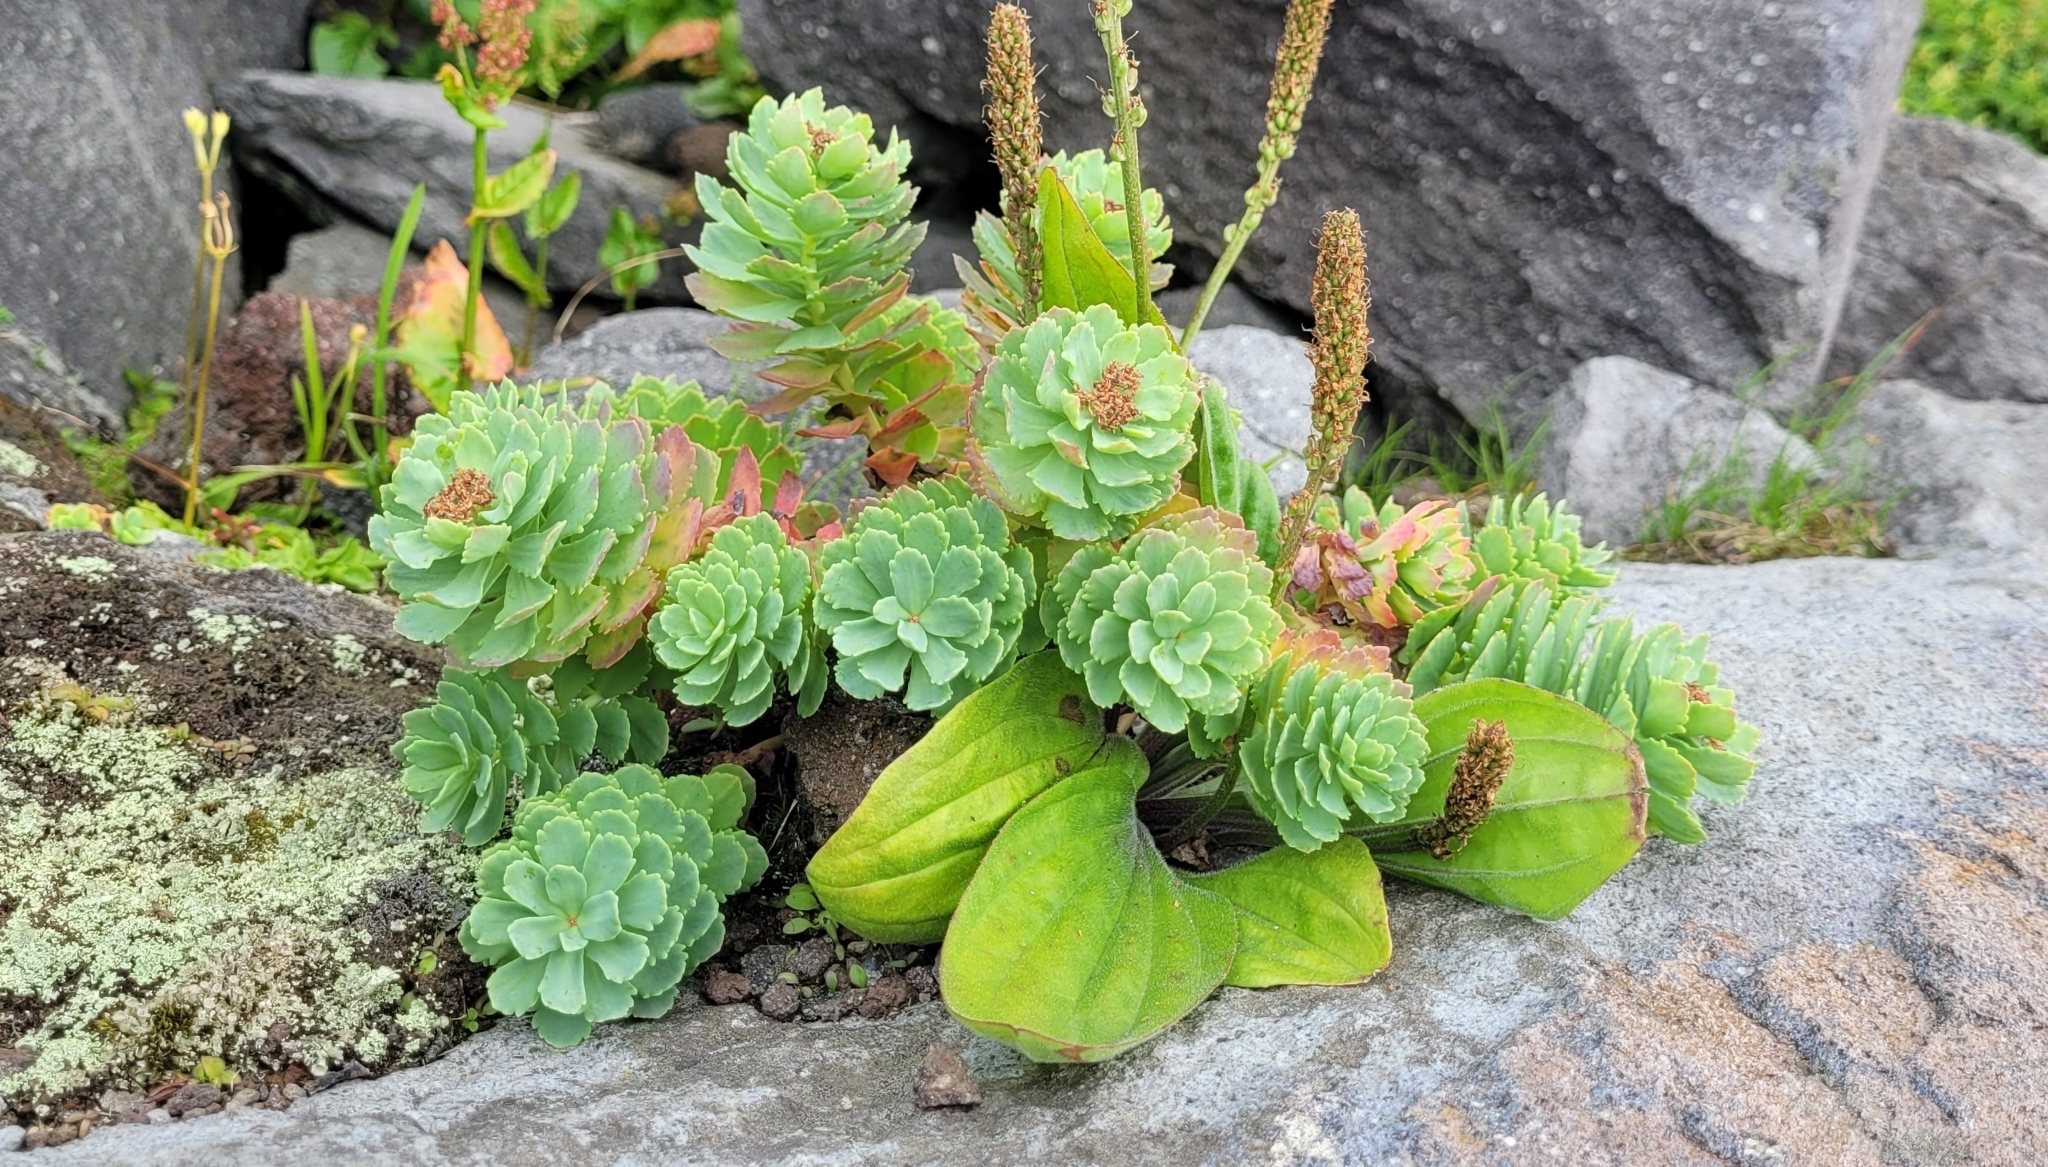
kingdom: Plantae
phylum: Tracheophyta
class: Magnoliopsida
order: Saxifragales
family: Crassulaceae
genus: Rhodiola
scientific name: Rhodiola rosea
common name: Roseroot
